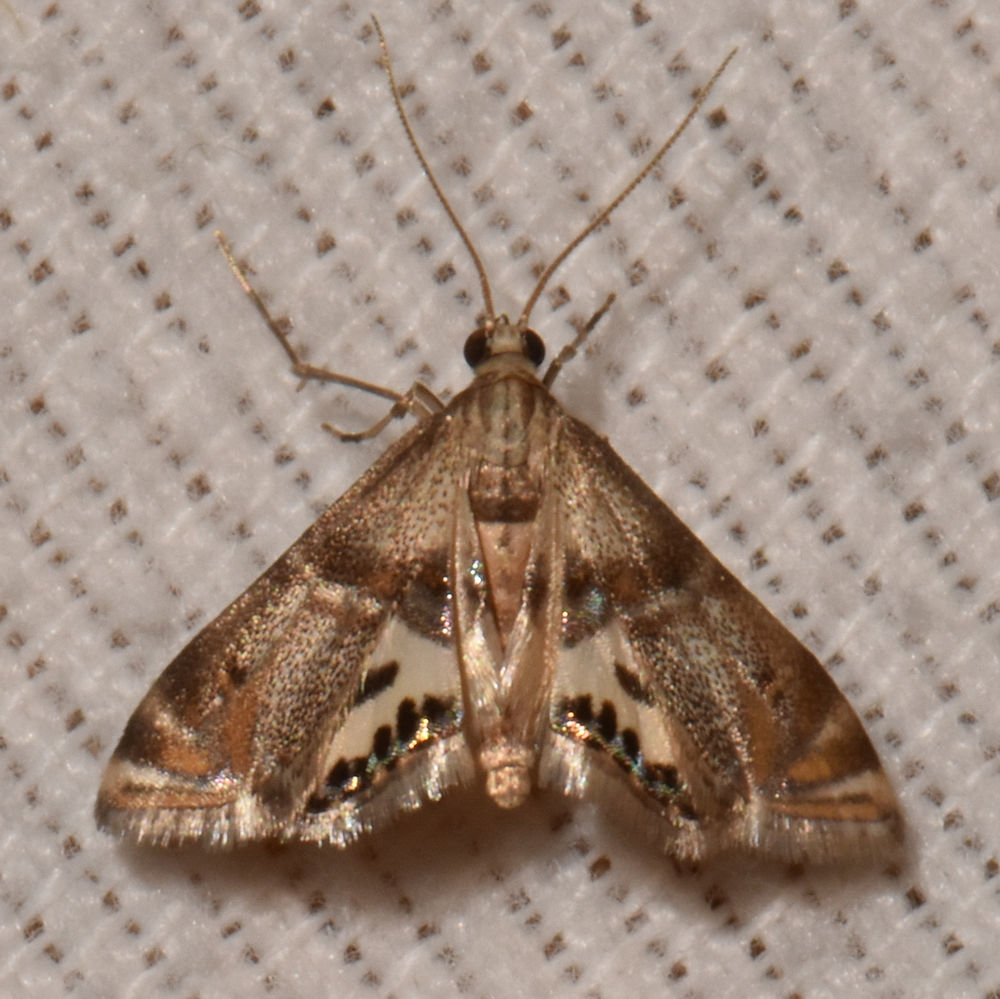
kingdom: Animalia
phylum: Arthropoda
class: Insecta
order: Lepidoptera
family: Crambidae
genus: Petrophila
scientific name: Petrophila bifascialis
